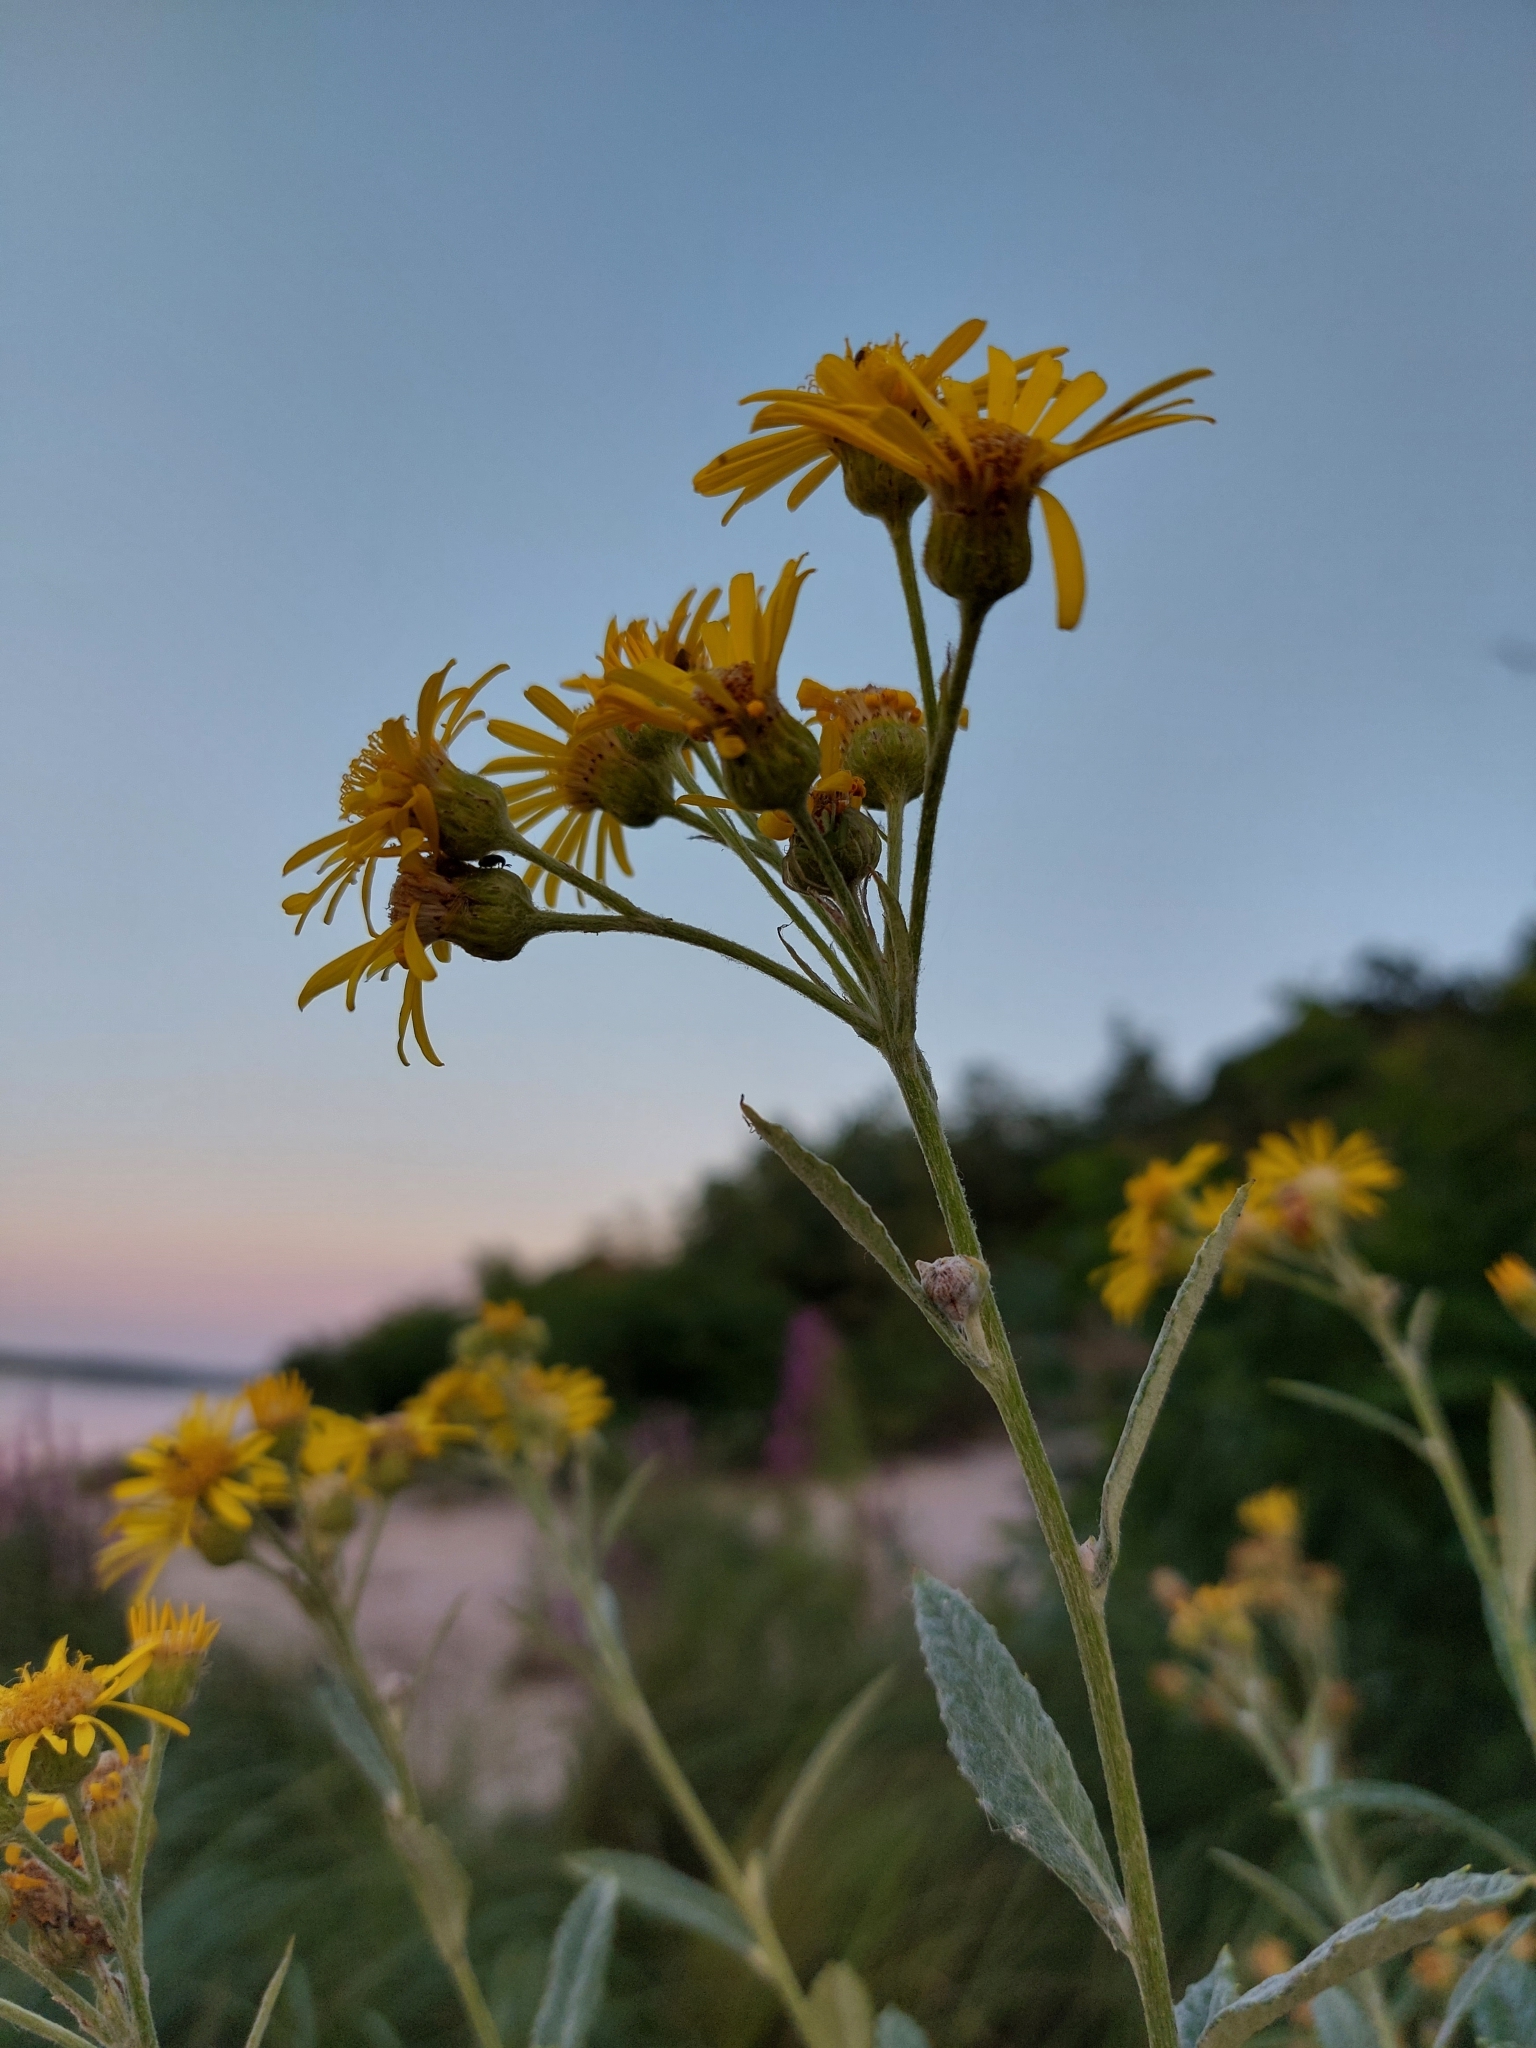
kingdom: Plantae
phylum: Tracheophyta
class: Magnoliopsida
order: Asterales
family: Asteraceae
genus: Jacobaea
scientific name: Jacobaea paludosa
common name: Fen ragwort
